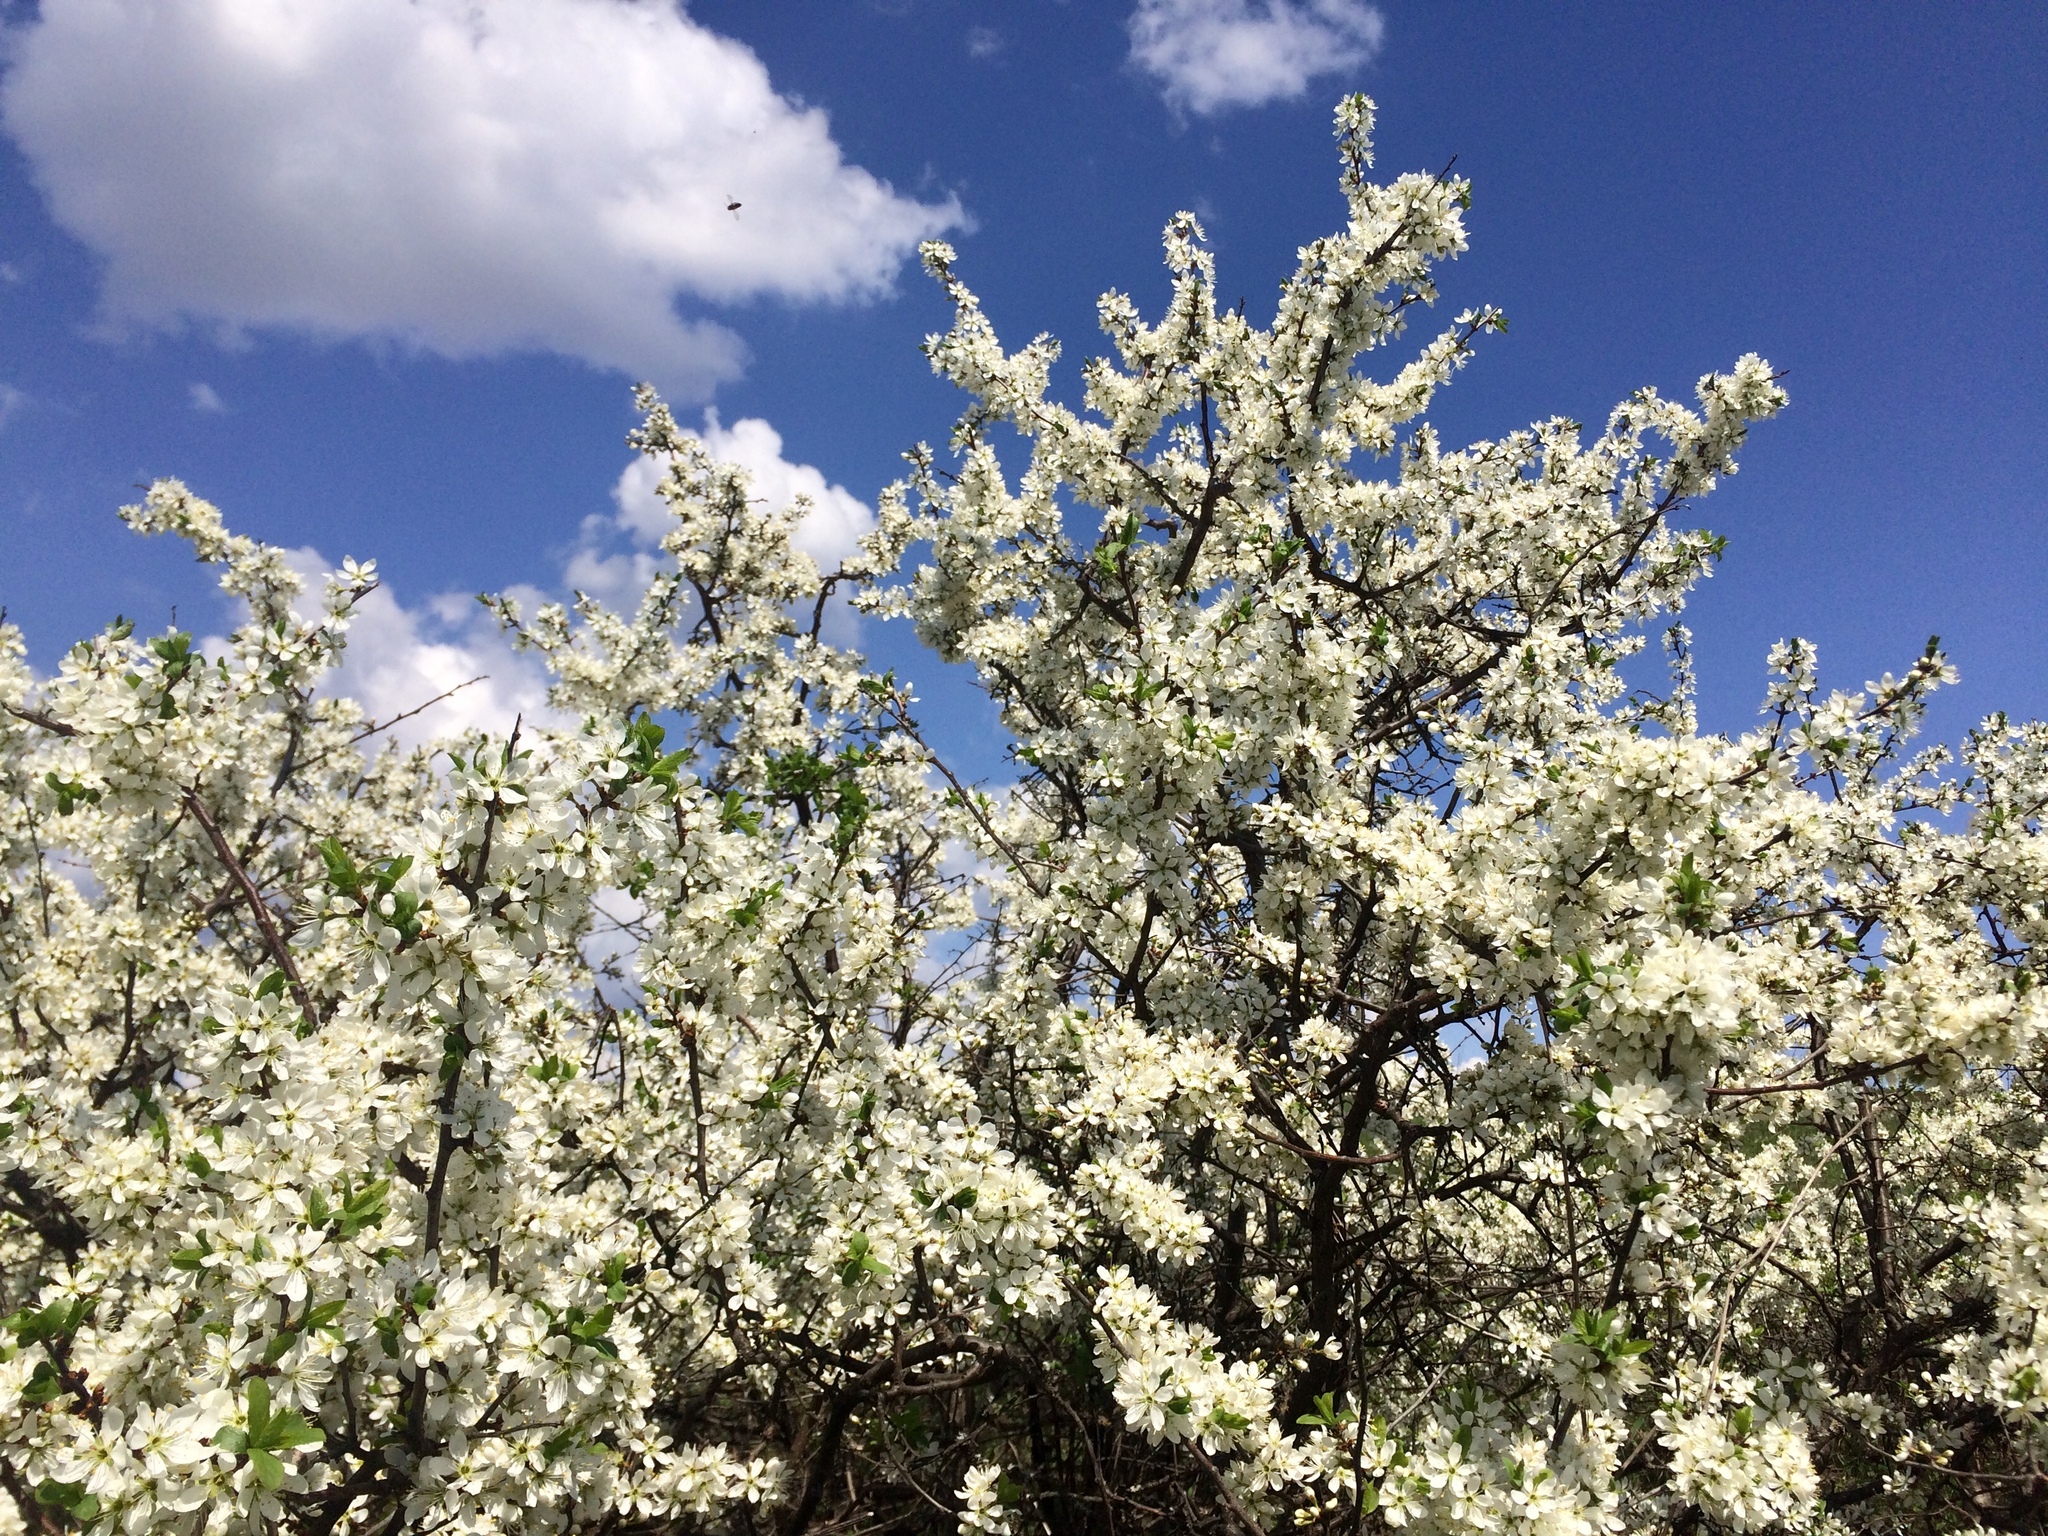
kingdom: Plantae
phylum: Tracheophyta
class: Magnoliopsida
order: Rosales
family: Rosaceae
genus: Prunus
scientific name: Prunus spinosa
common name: Blackthorn
